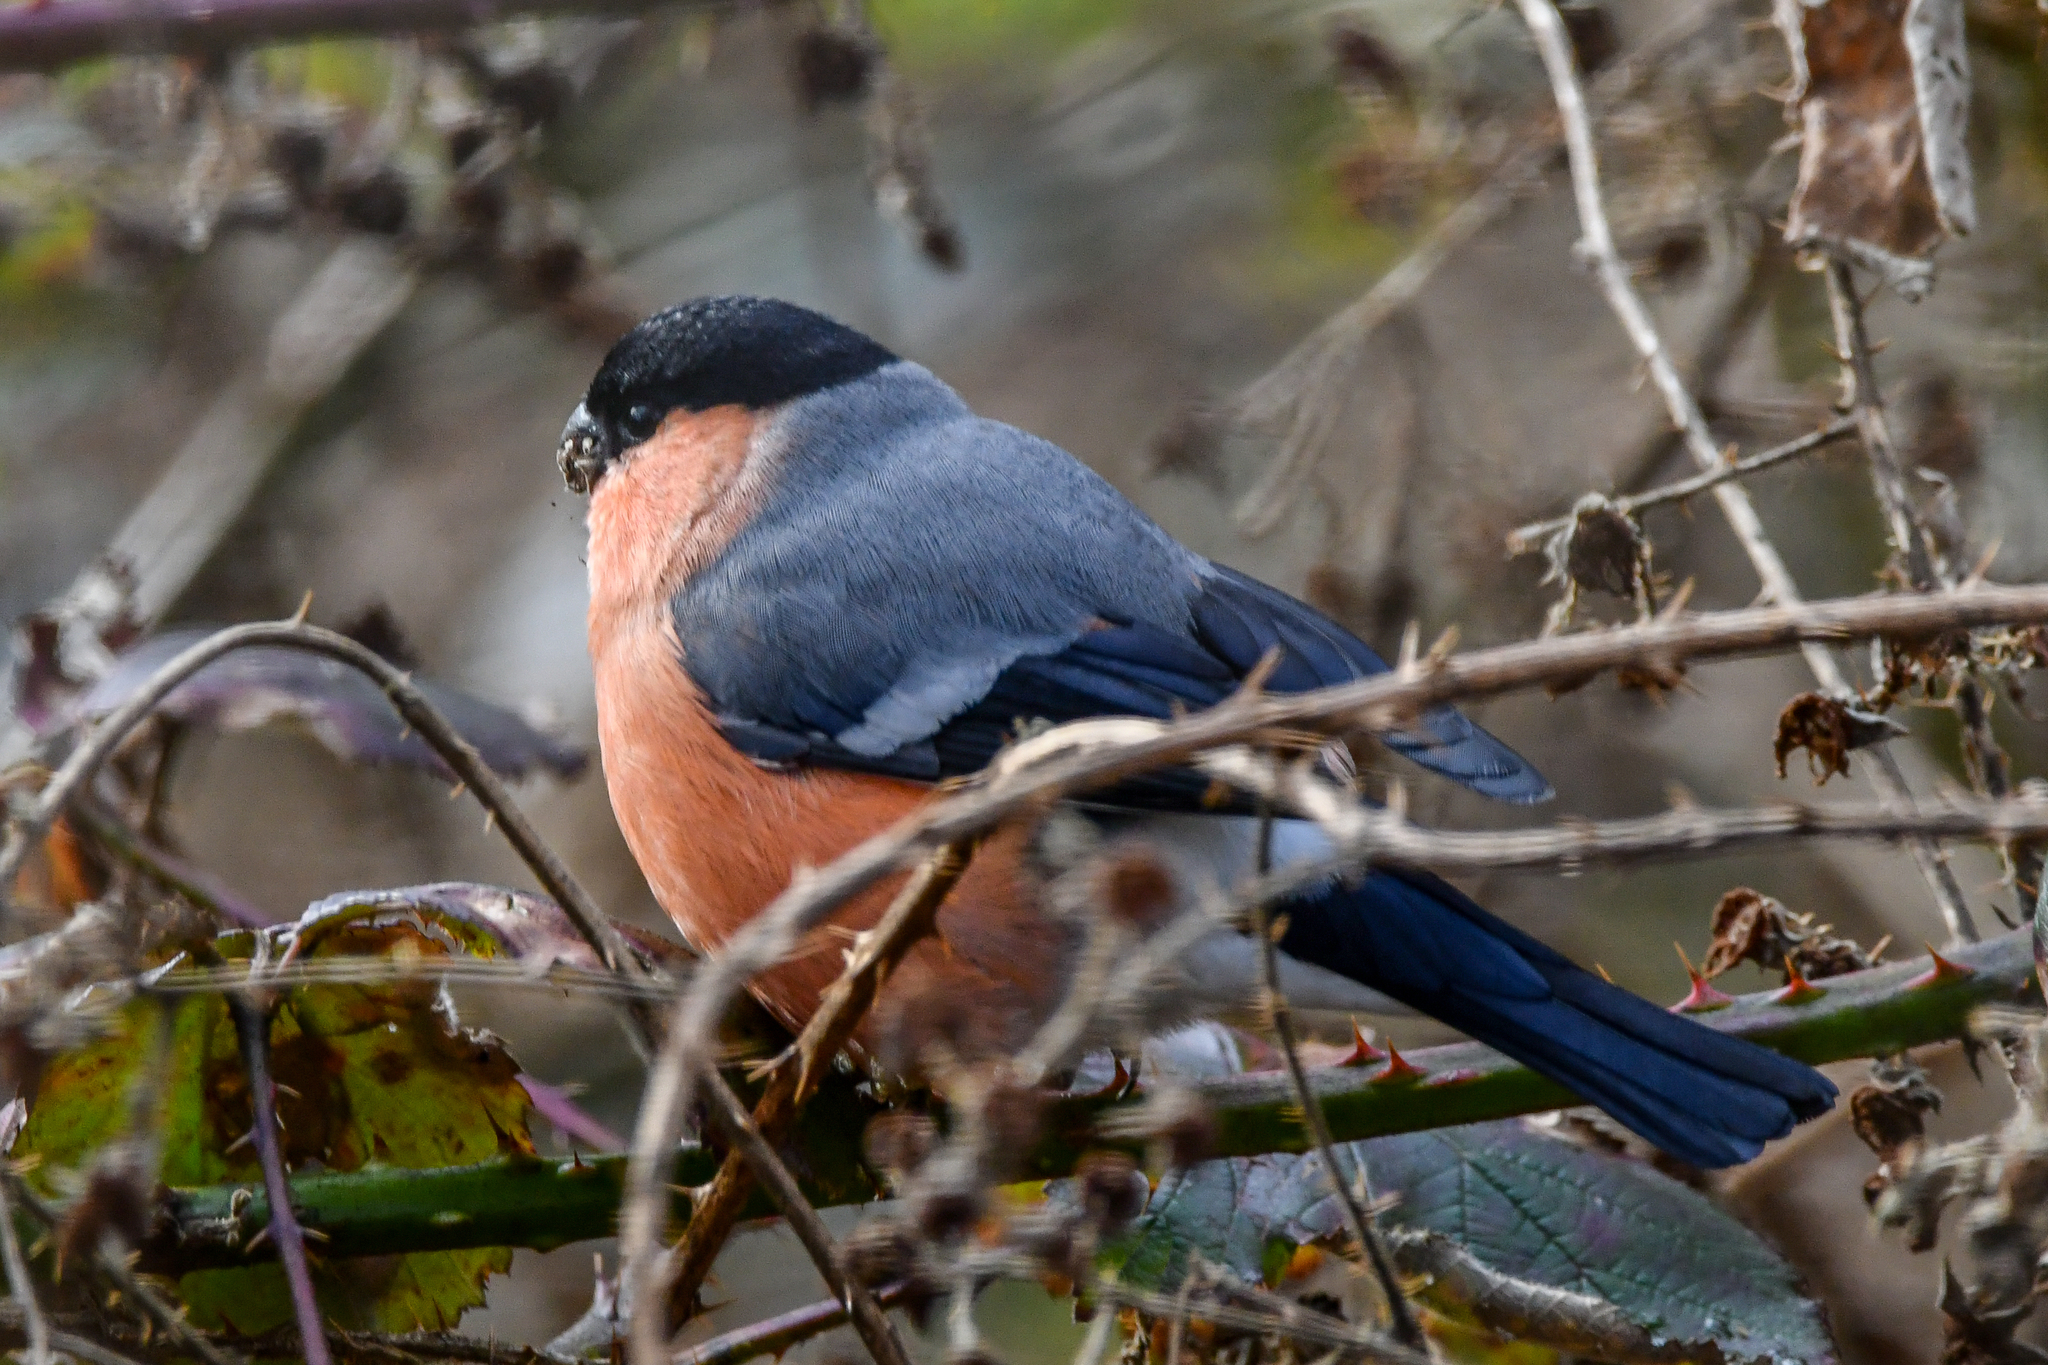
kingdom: Animalia
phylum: Chordata
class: Aves
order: Passeriformes
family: Fringillidae
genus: Pyrrhula
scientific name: Pyrrhula pyrrhula
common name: Eurasian bullfinch
